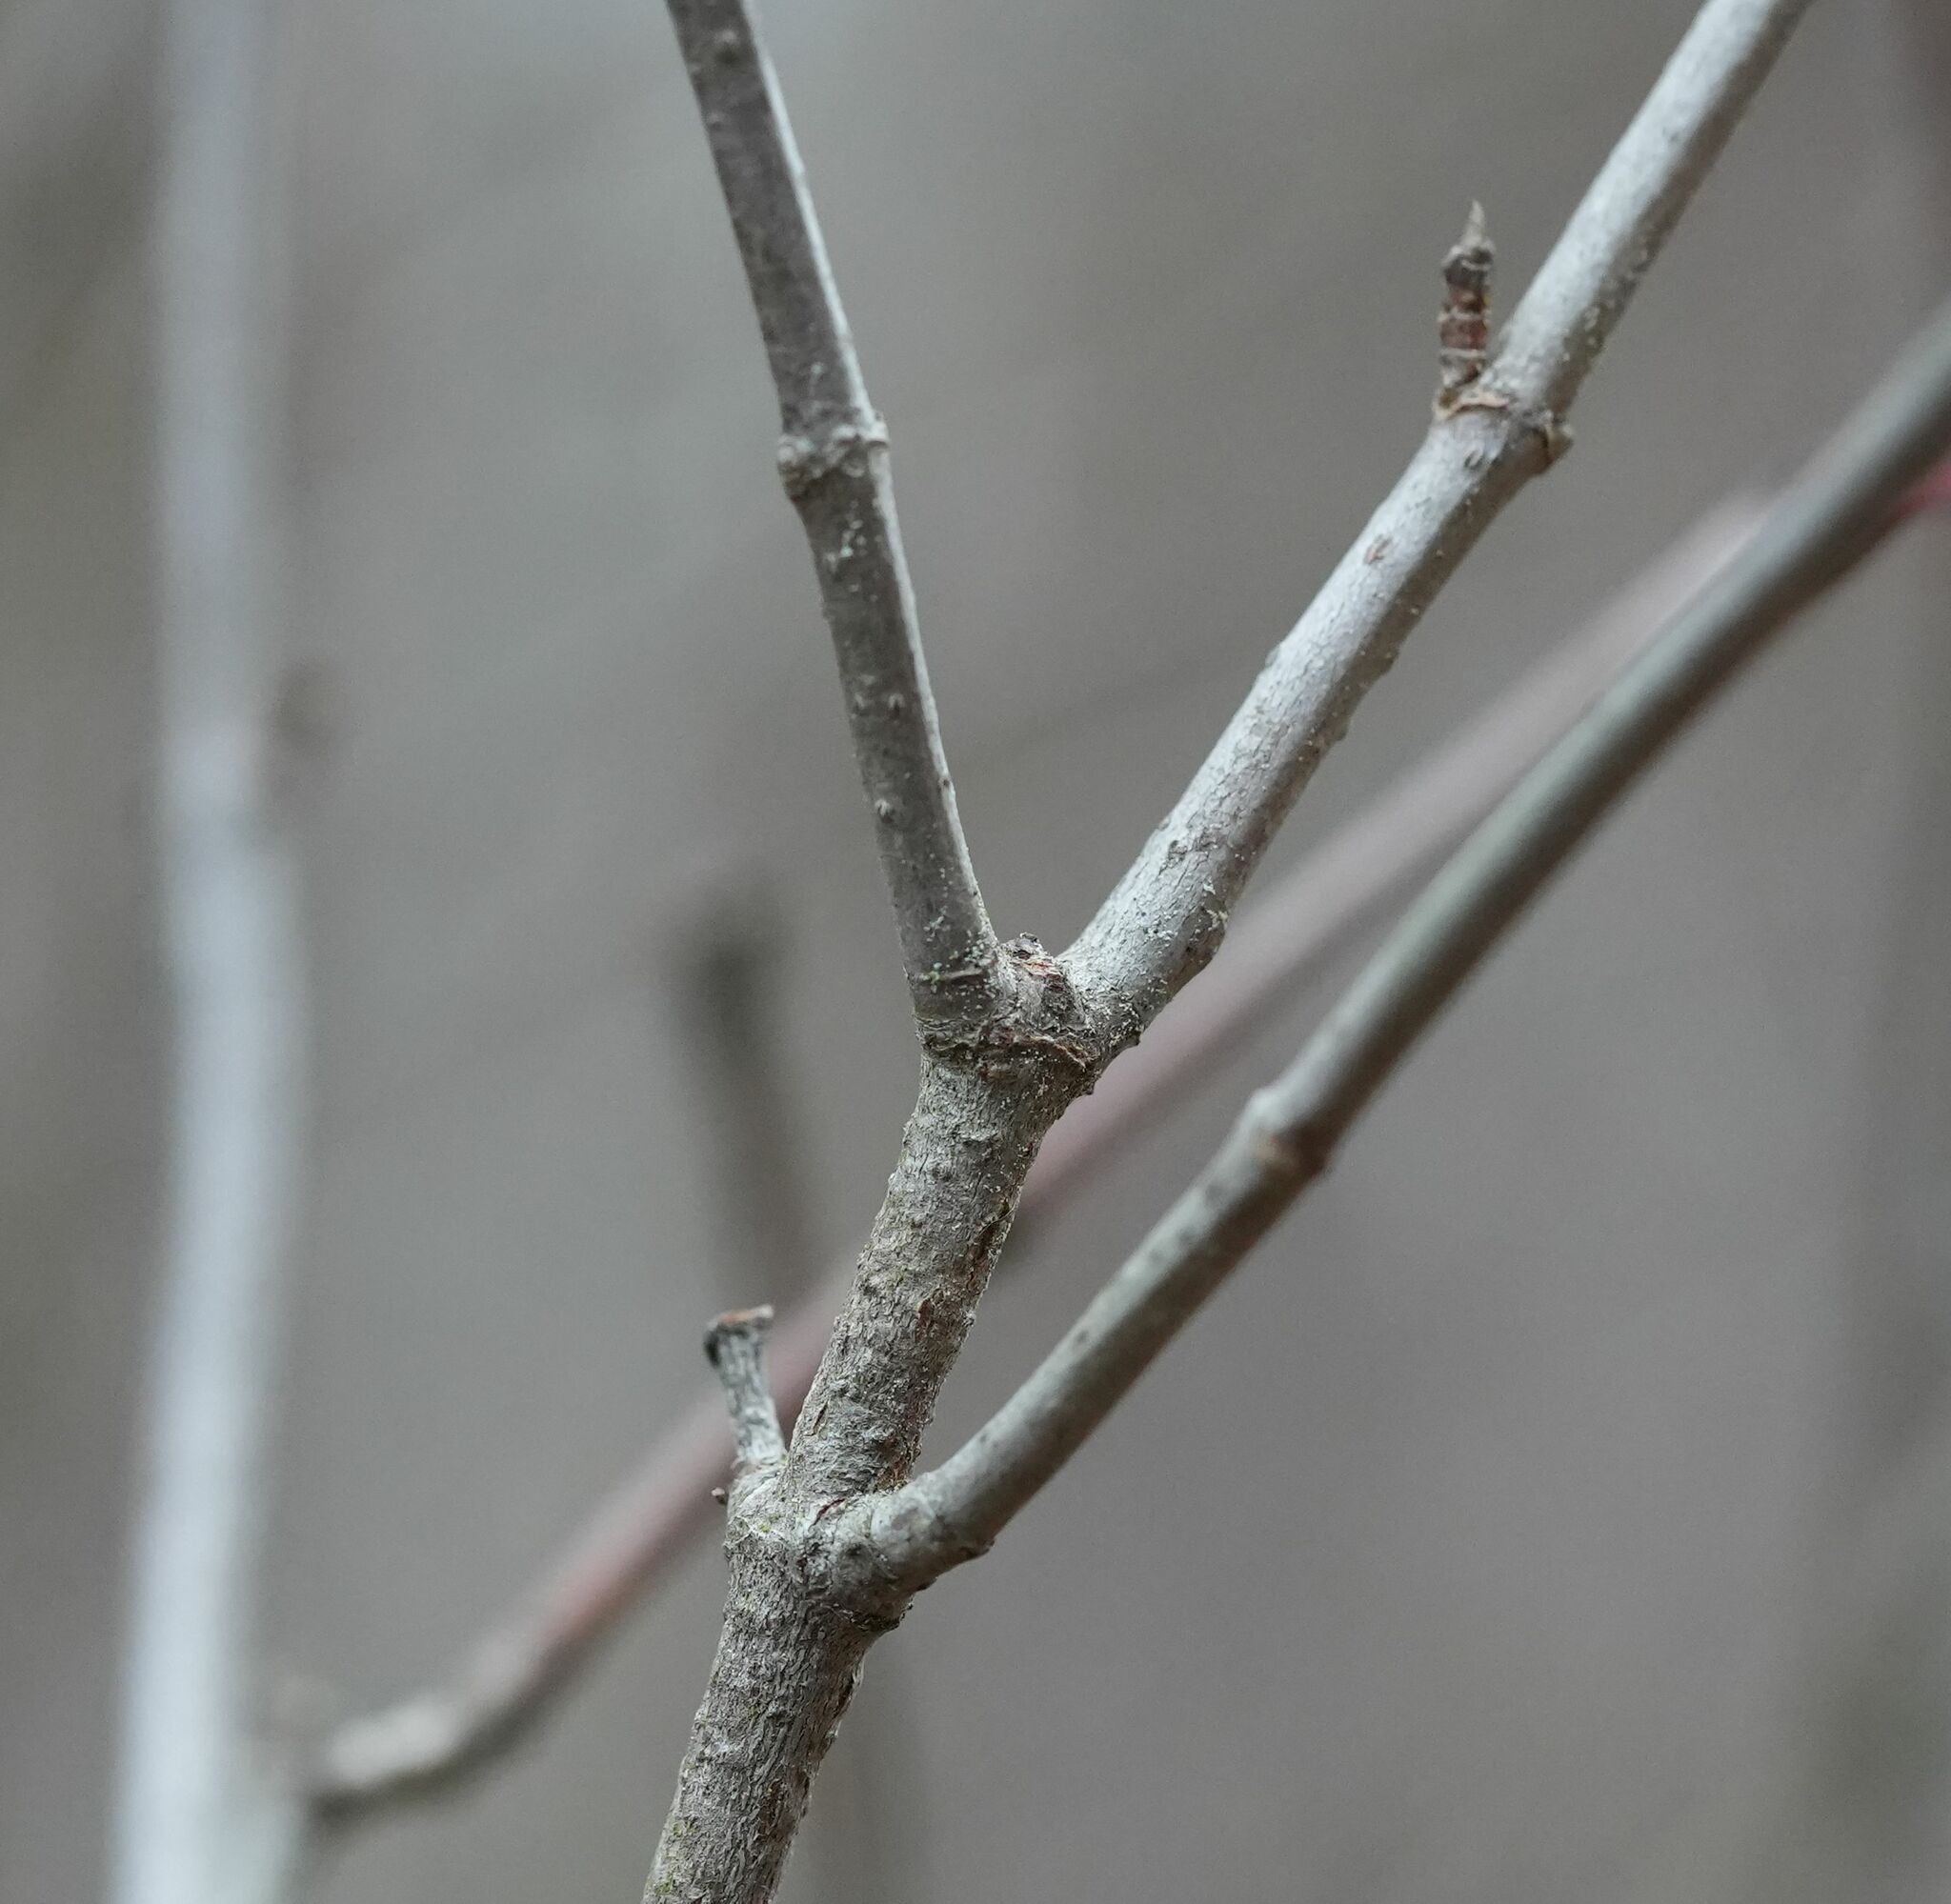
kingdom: Plantae
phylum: Tracheophyta
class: Magnoliopsida
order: Cornales
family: Cornaceae
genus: Cornus
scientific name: Cornus racemosa
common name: Panicled dogwood
